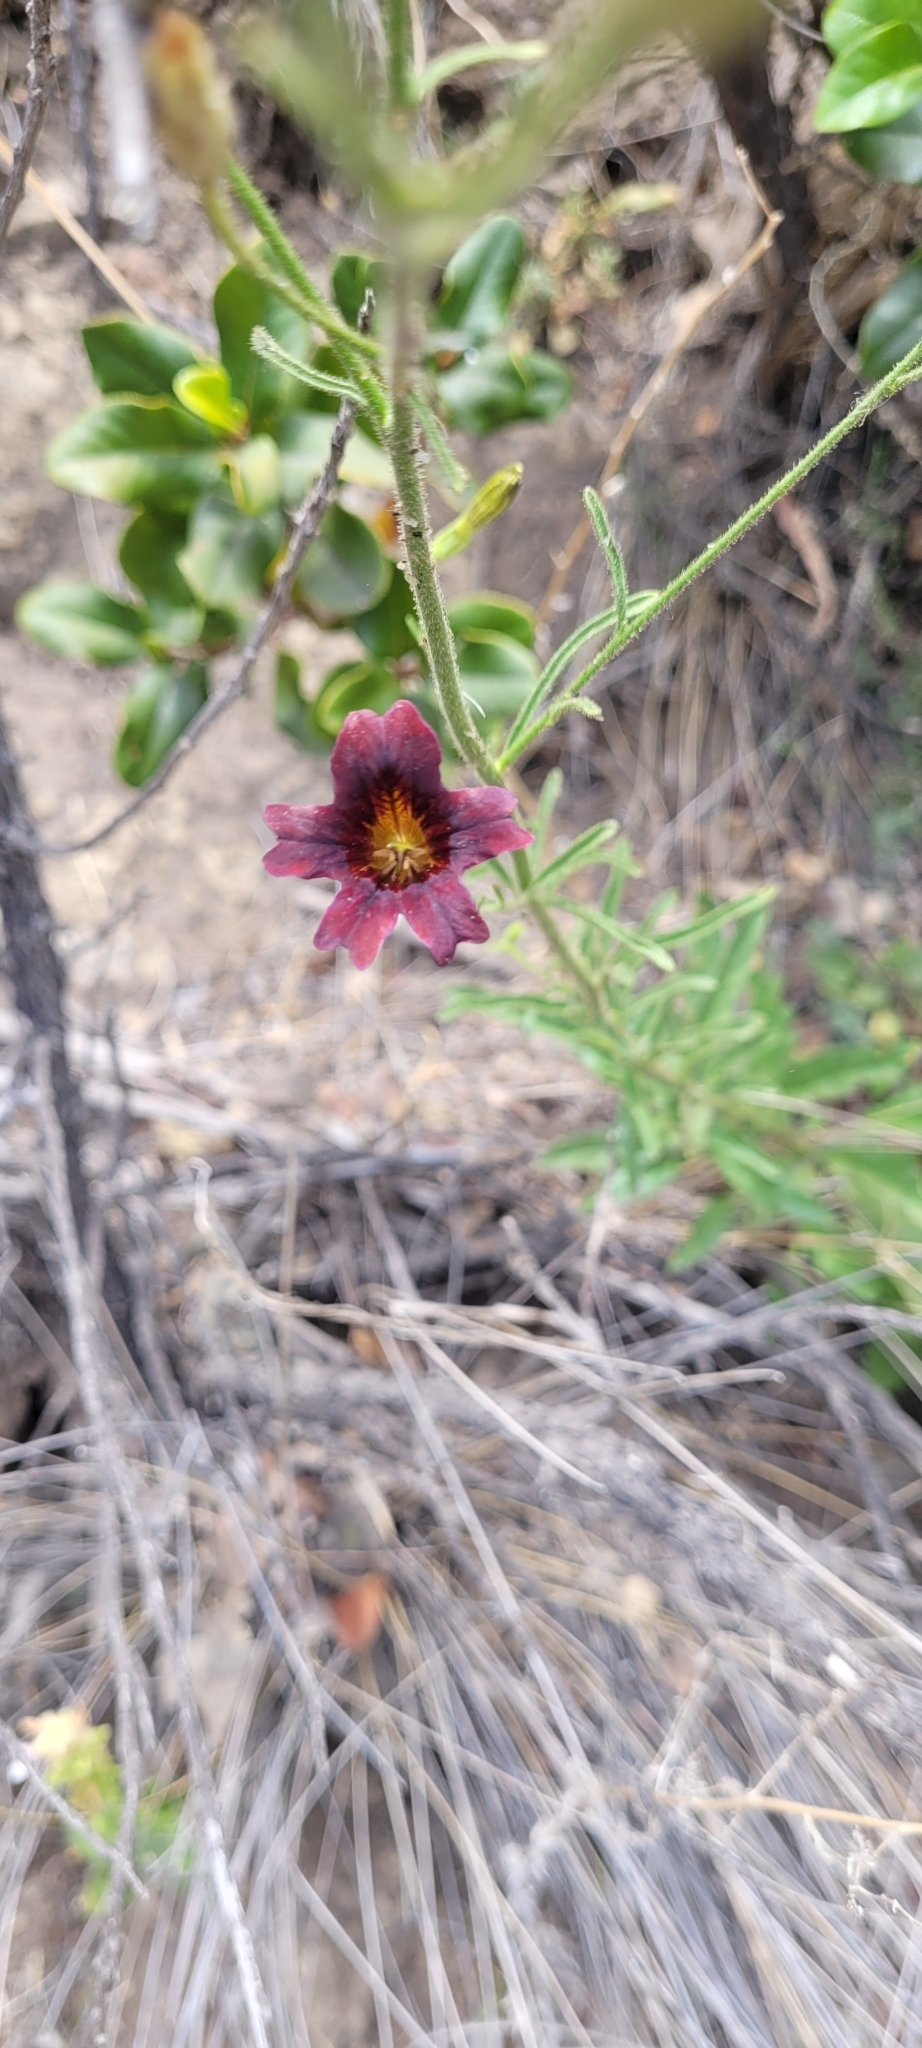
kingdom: Plantae
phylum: Tracheophyta
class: Magnoliopsida
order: Solanales
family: Solanaceae
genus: Salpiglossis
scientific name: Salpiglossis sinuata
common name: Painted-tongue
